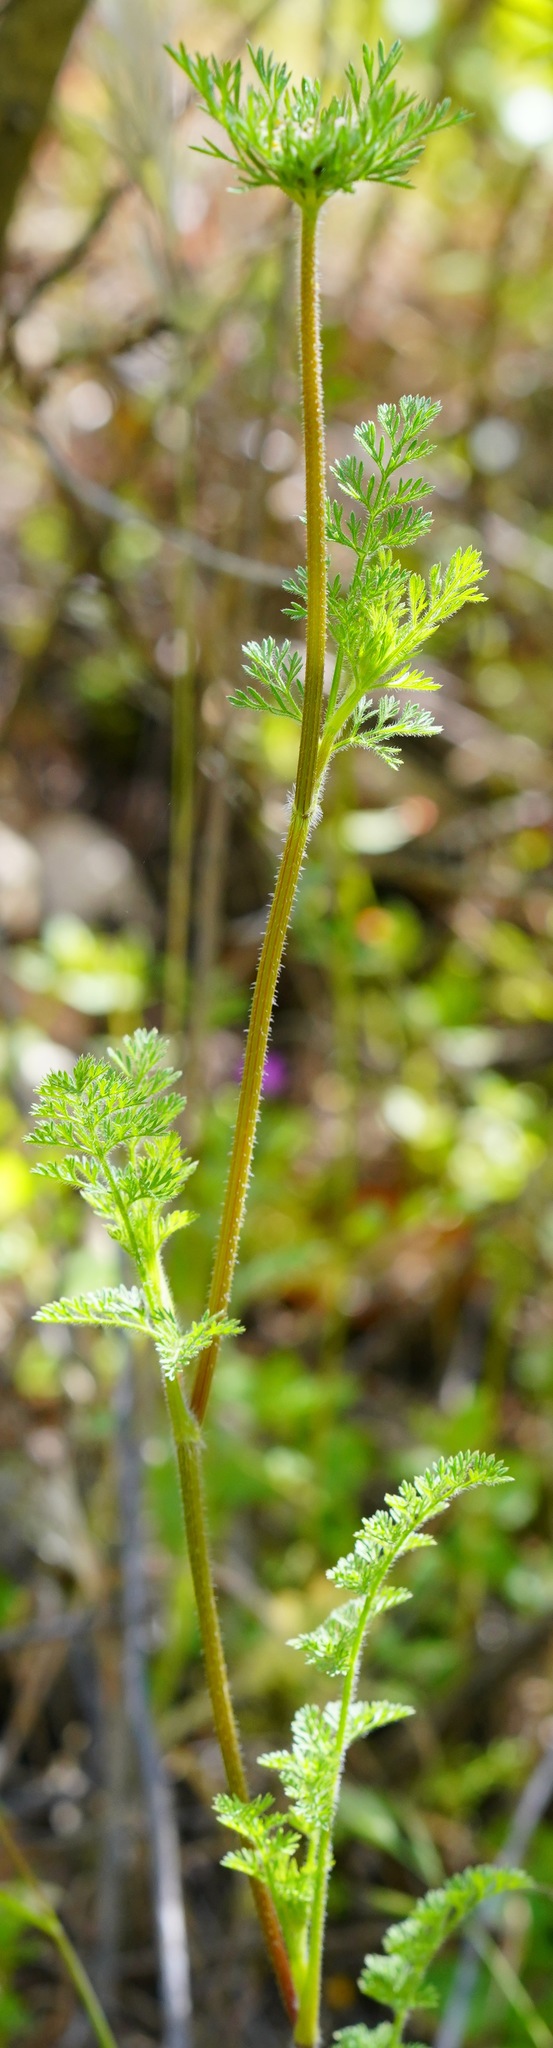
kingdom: Plantae
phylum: Tracheophyta
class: Magnoliopsida
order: Apiales
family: Apiaceae
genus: Daucus
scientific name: Daucus pusillus
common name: Southwest wild carrot
